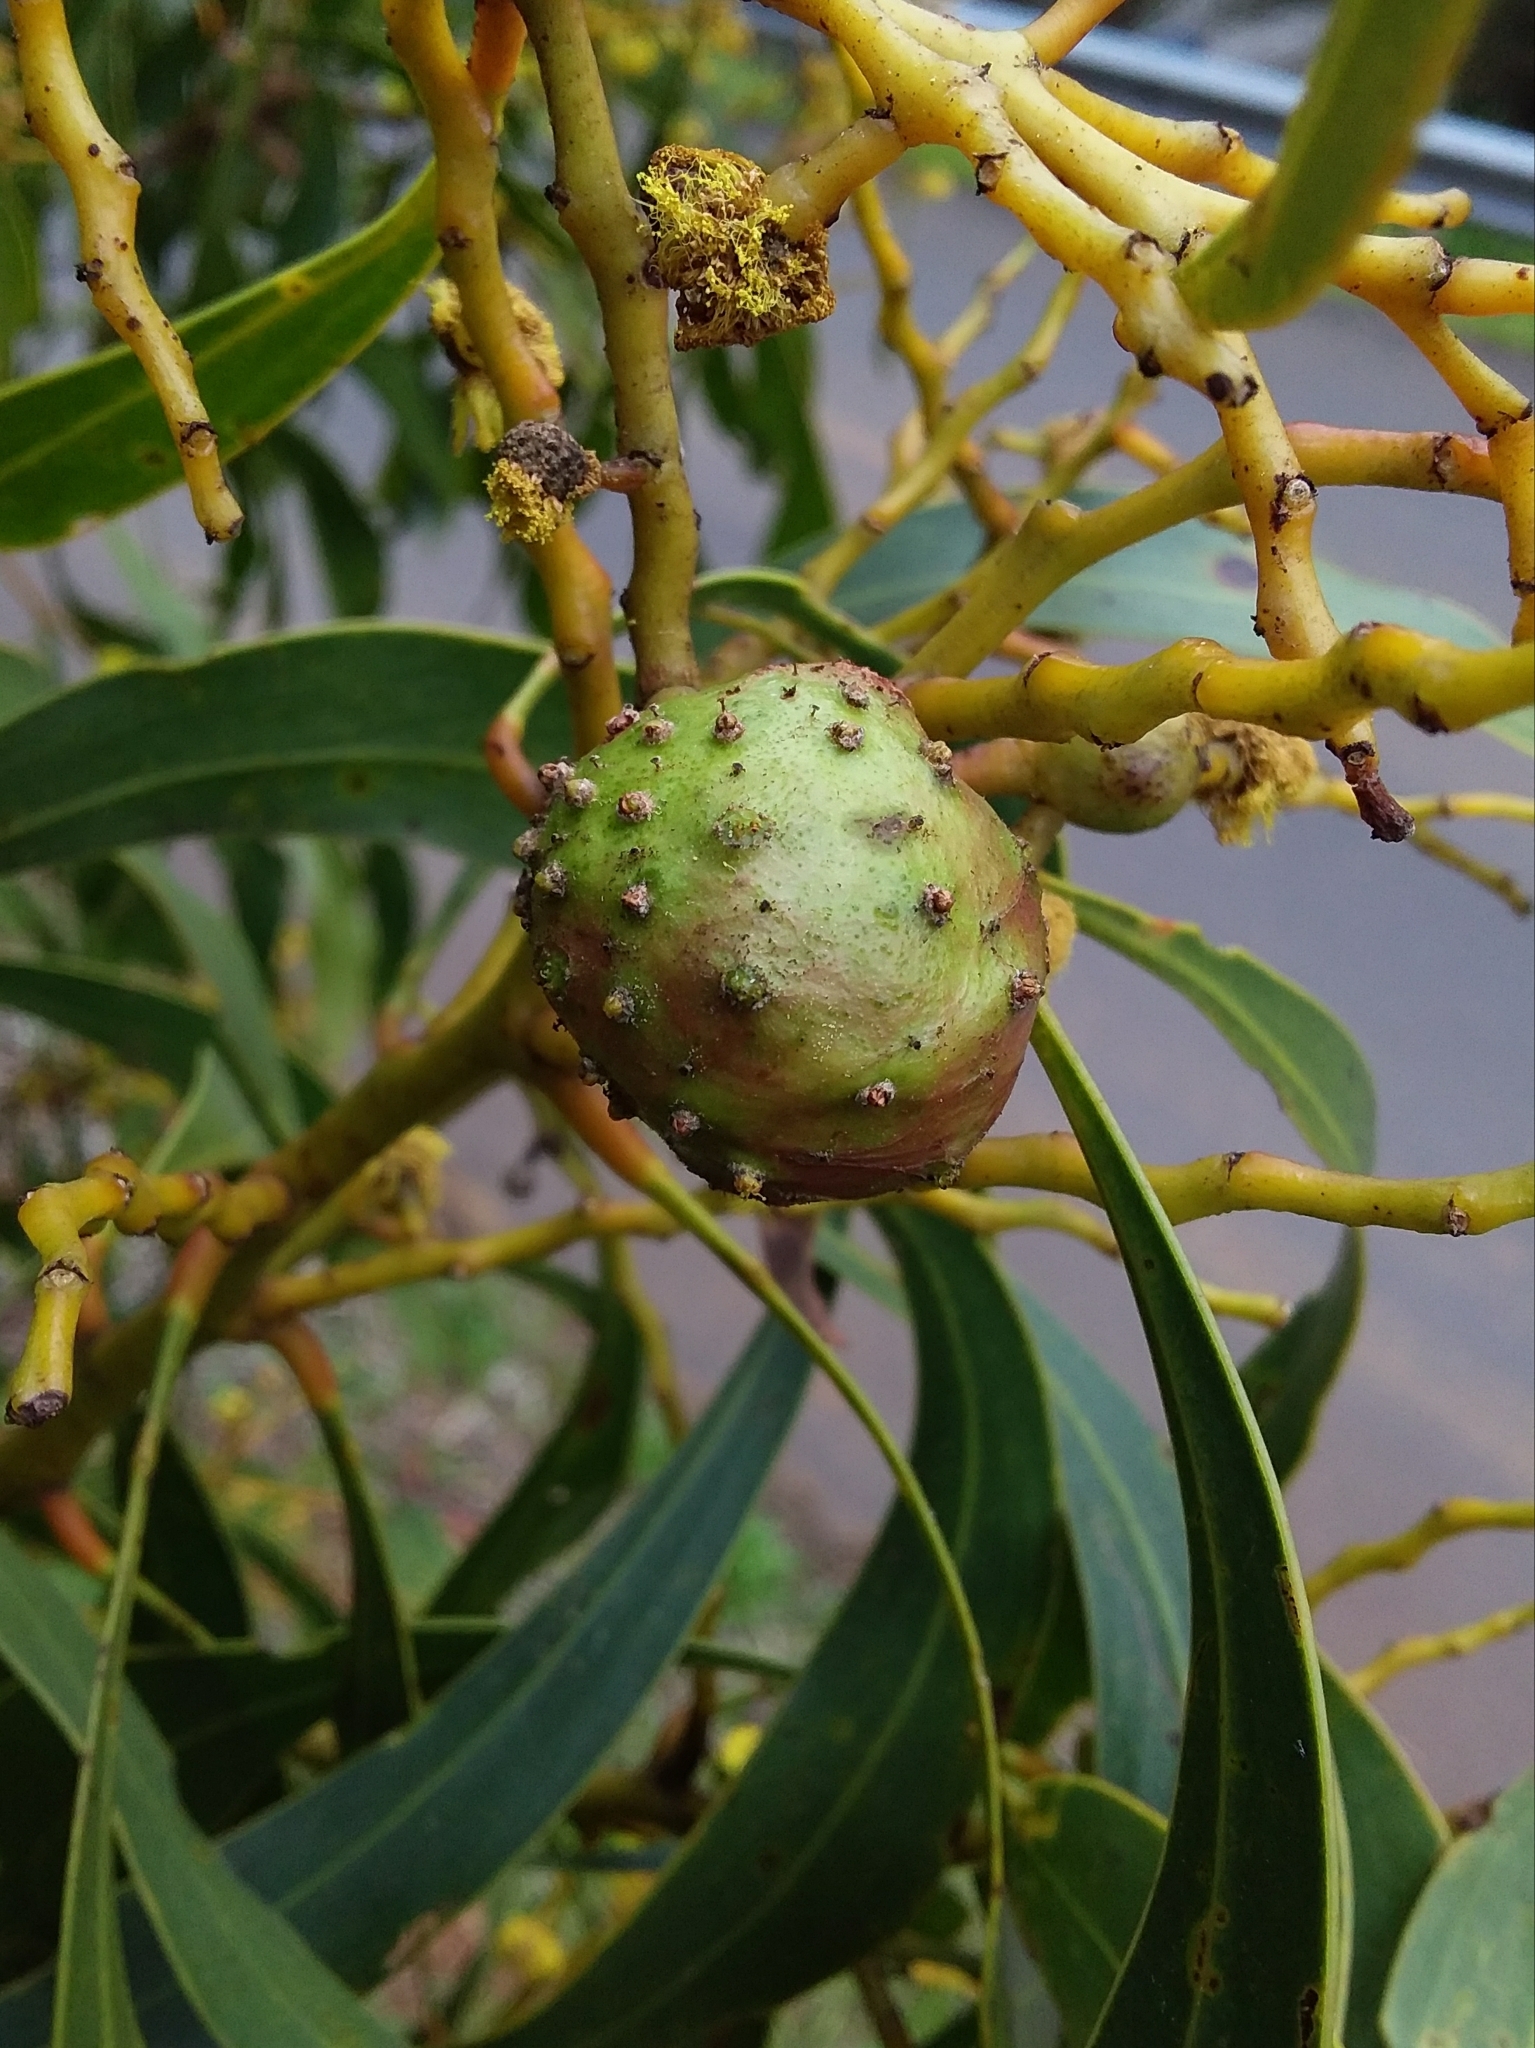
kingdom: Animalia
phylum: Arthropoda
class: Insecta
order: Hymenoptera
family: Pteromalidae
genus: Trichilogaster
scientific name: Trichilogaster signiventris
